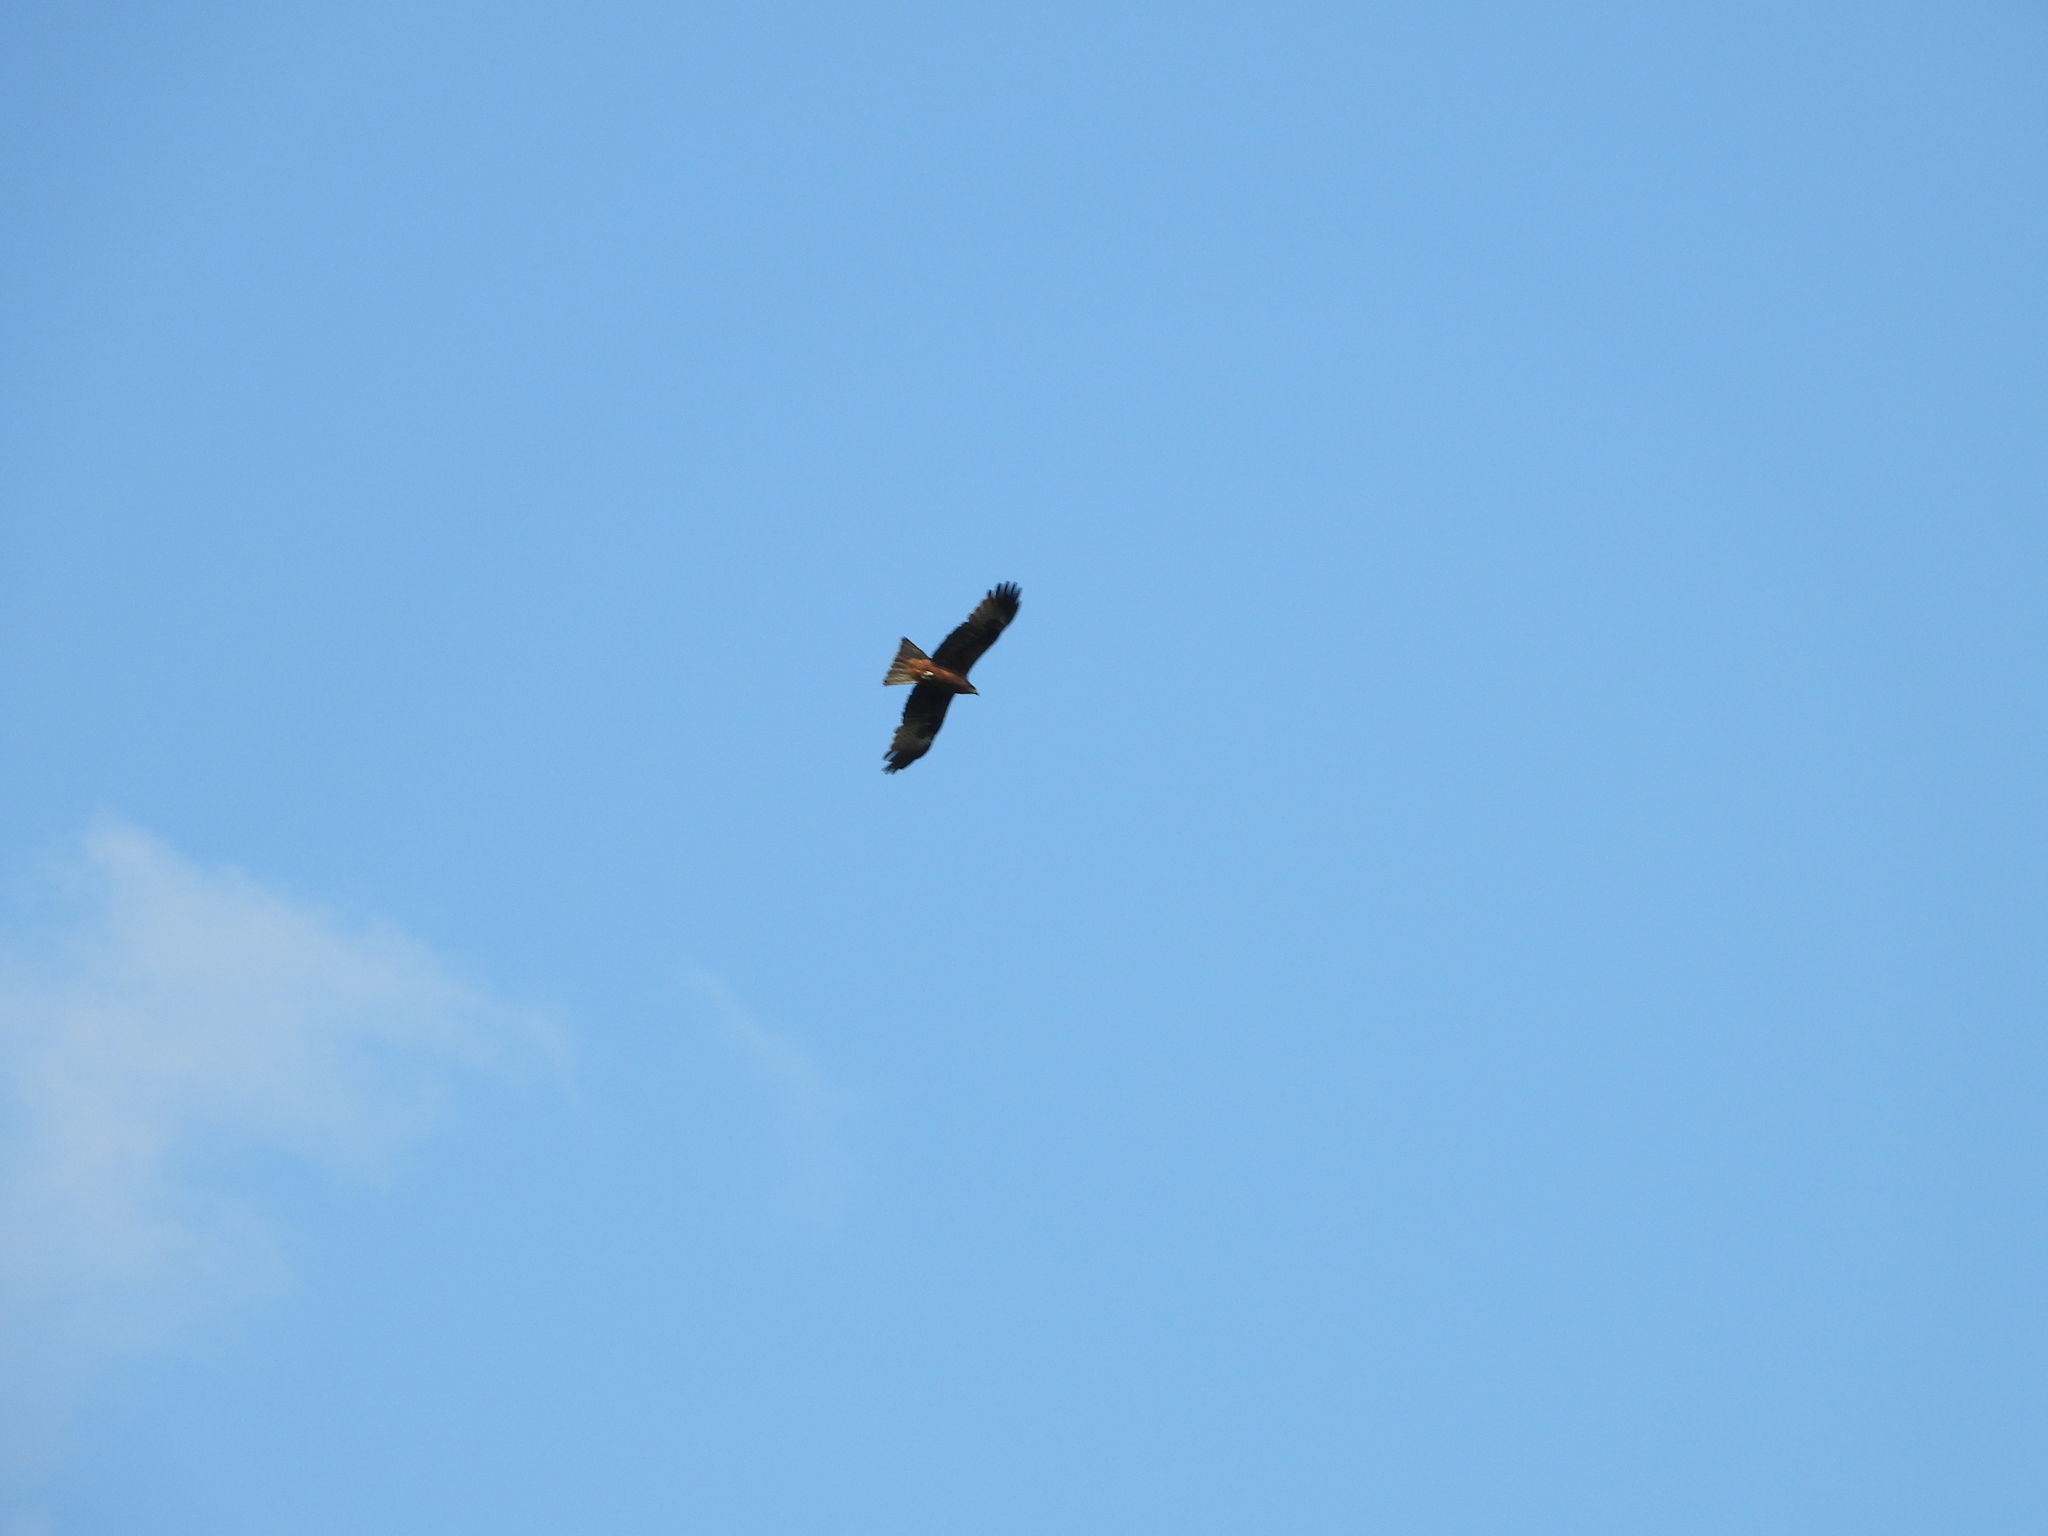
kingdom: Animalia
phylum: Chordata
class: Aves
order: Accipitriformes
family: Accipitridae
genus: Milvus
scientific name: Milvus migrans
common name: Black kite
